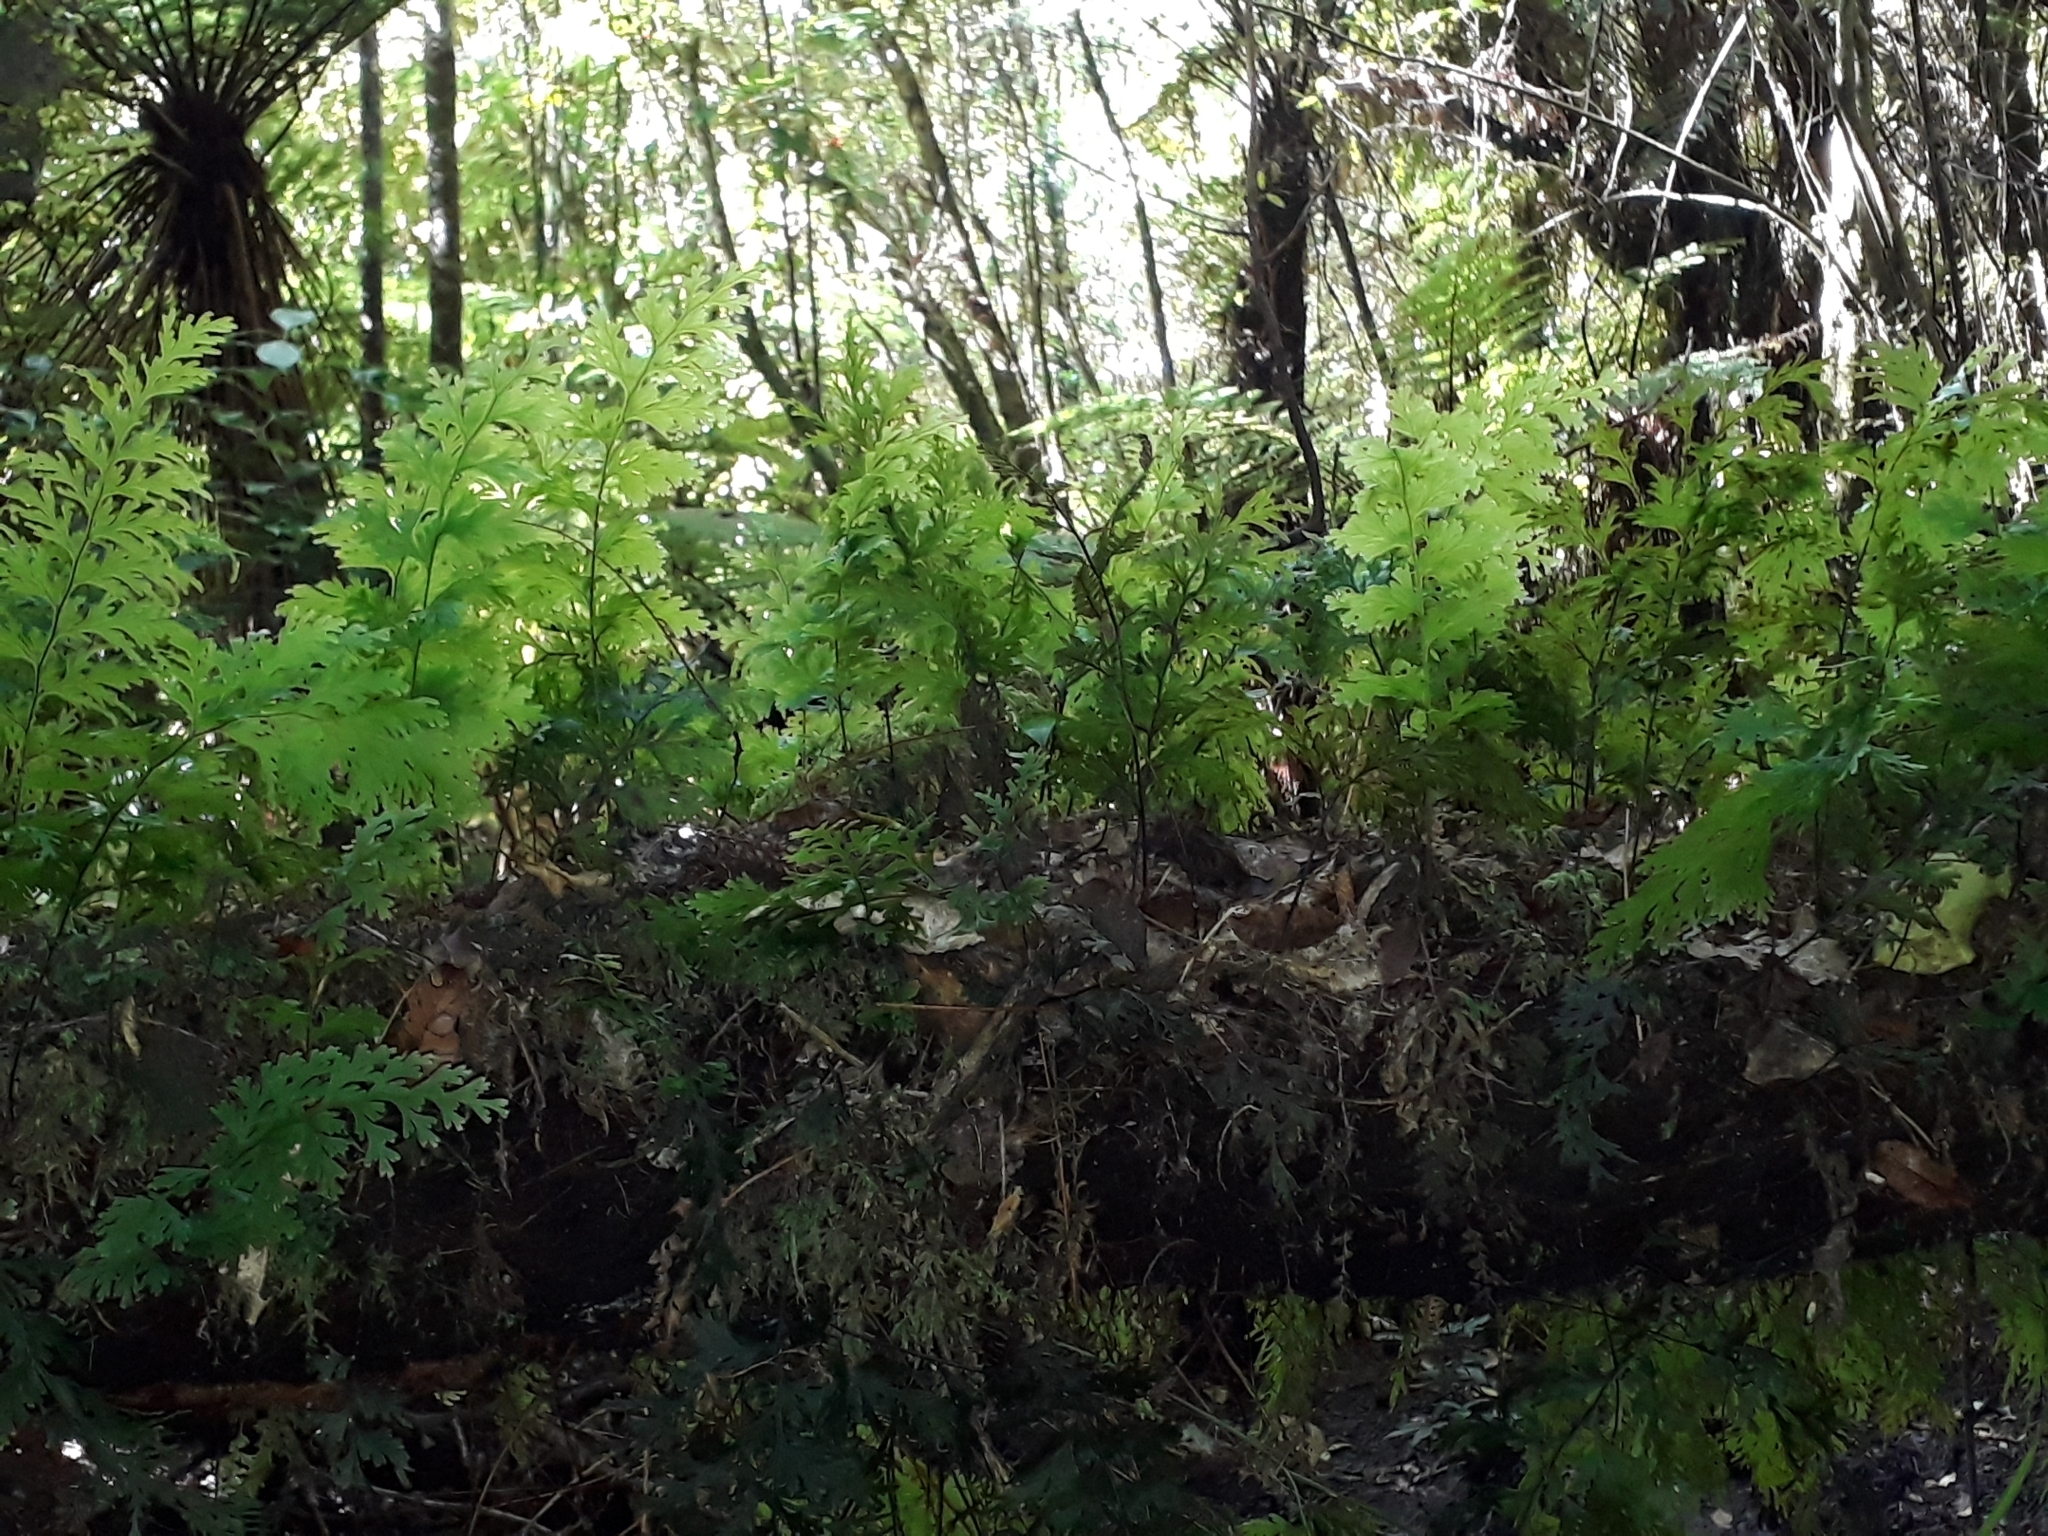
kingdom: Plantae
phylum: Tracheophyta
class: Polypodiopsida
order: Hymenophyllales
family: Hymenophyllaceae
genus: Hymenophyllum
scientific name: Hymenophyllum dilatatum
